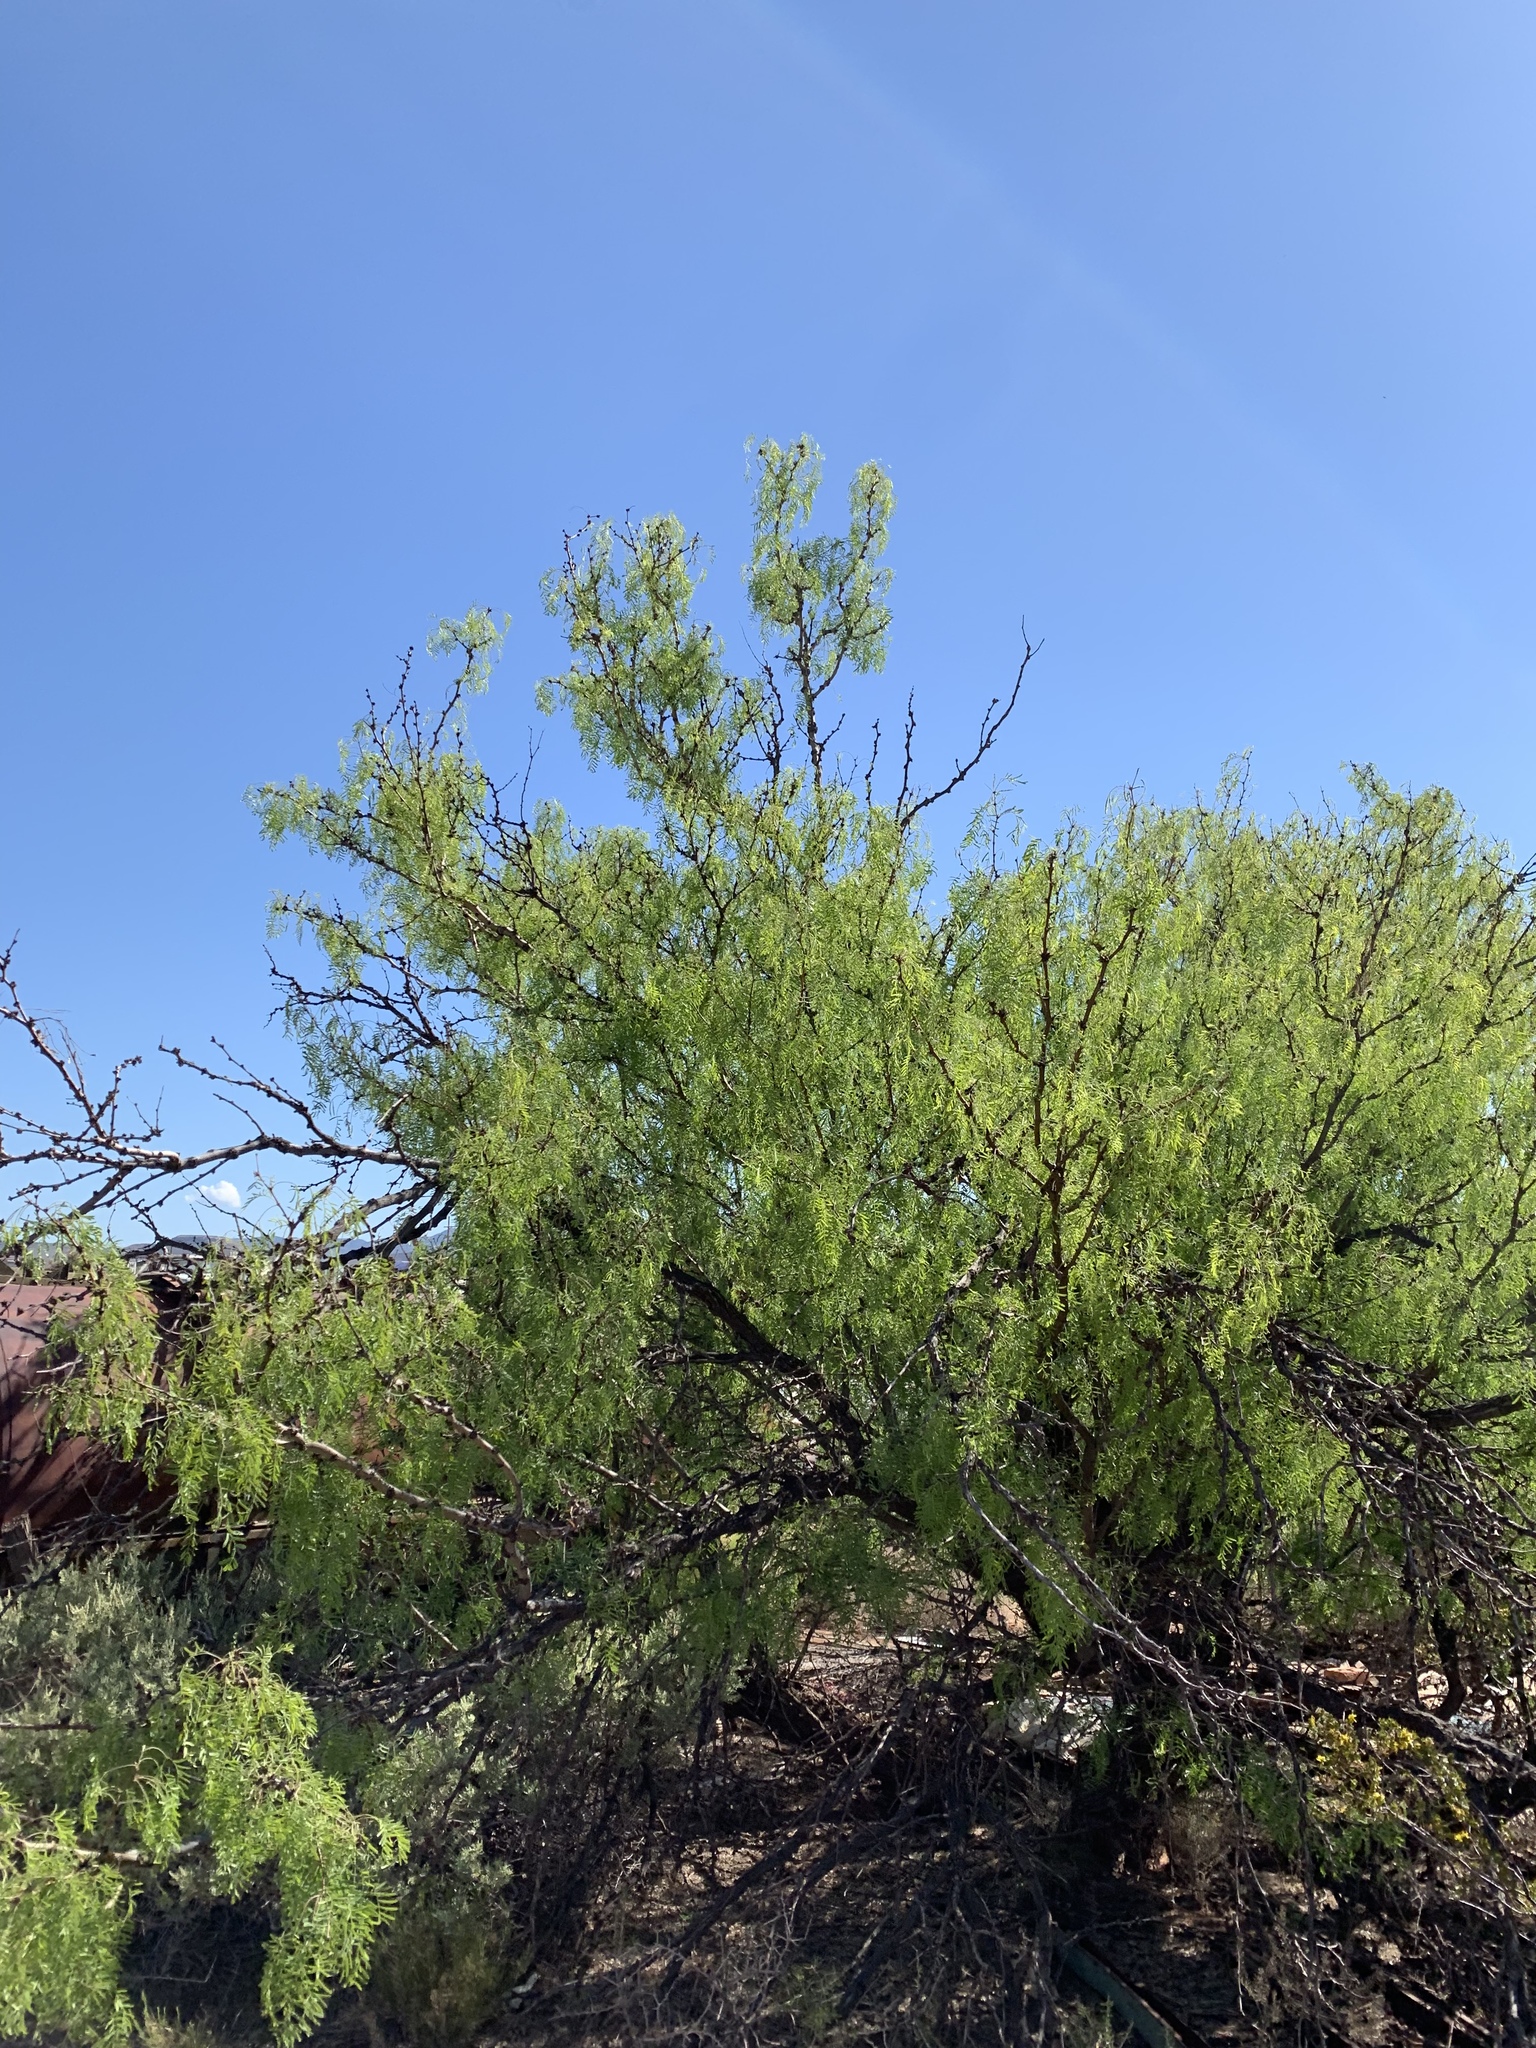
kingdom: Plantae
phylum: Tracheophyta
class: Magnoliopsida
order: Fabales
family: Fabaceae
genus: Prosopis
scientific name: Prosopis glandulosa
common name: Honey mesquite
